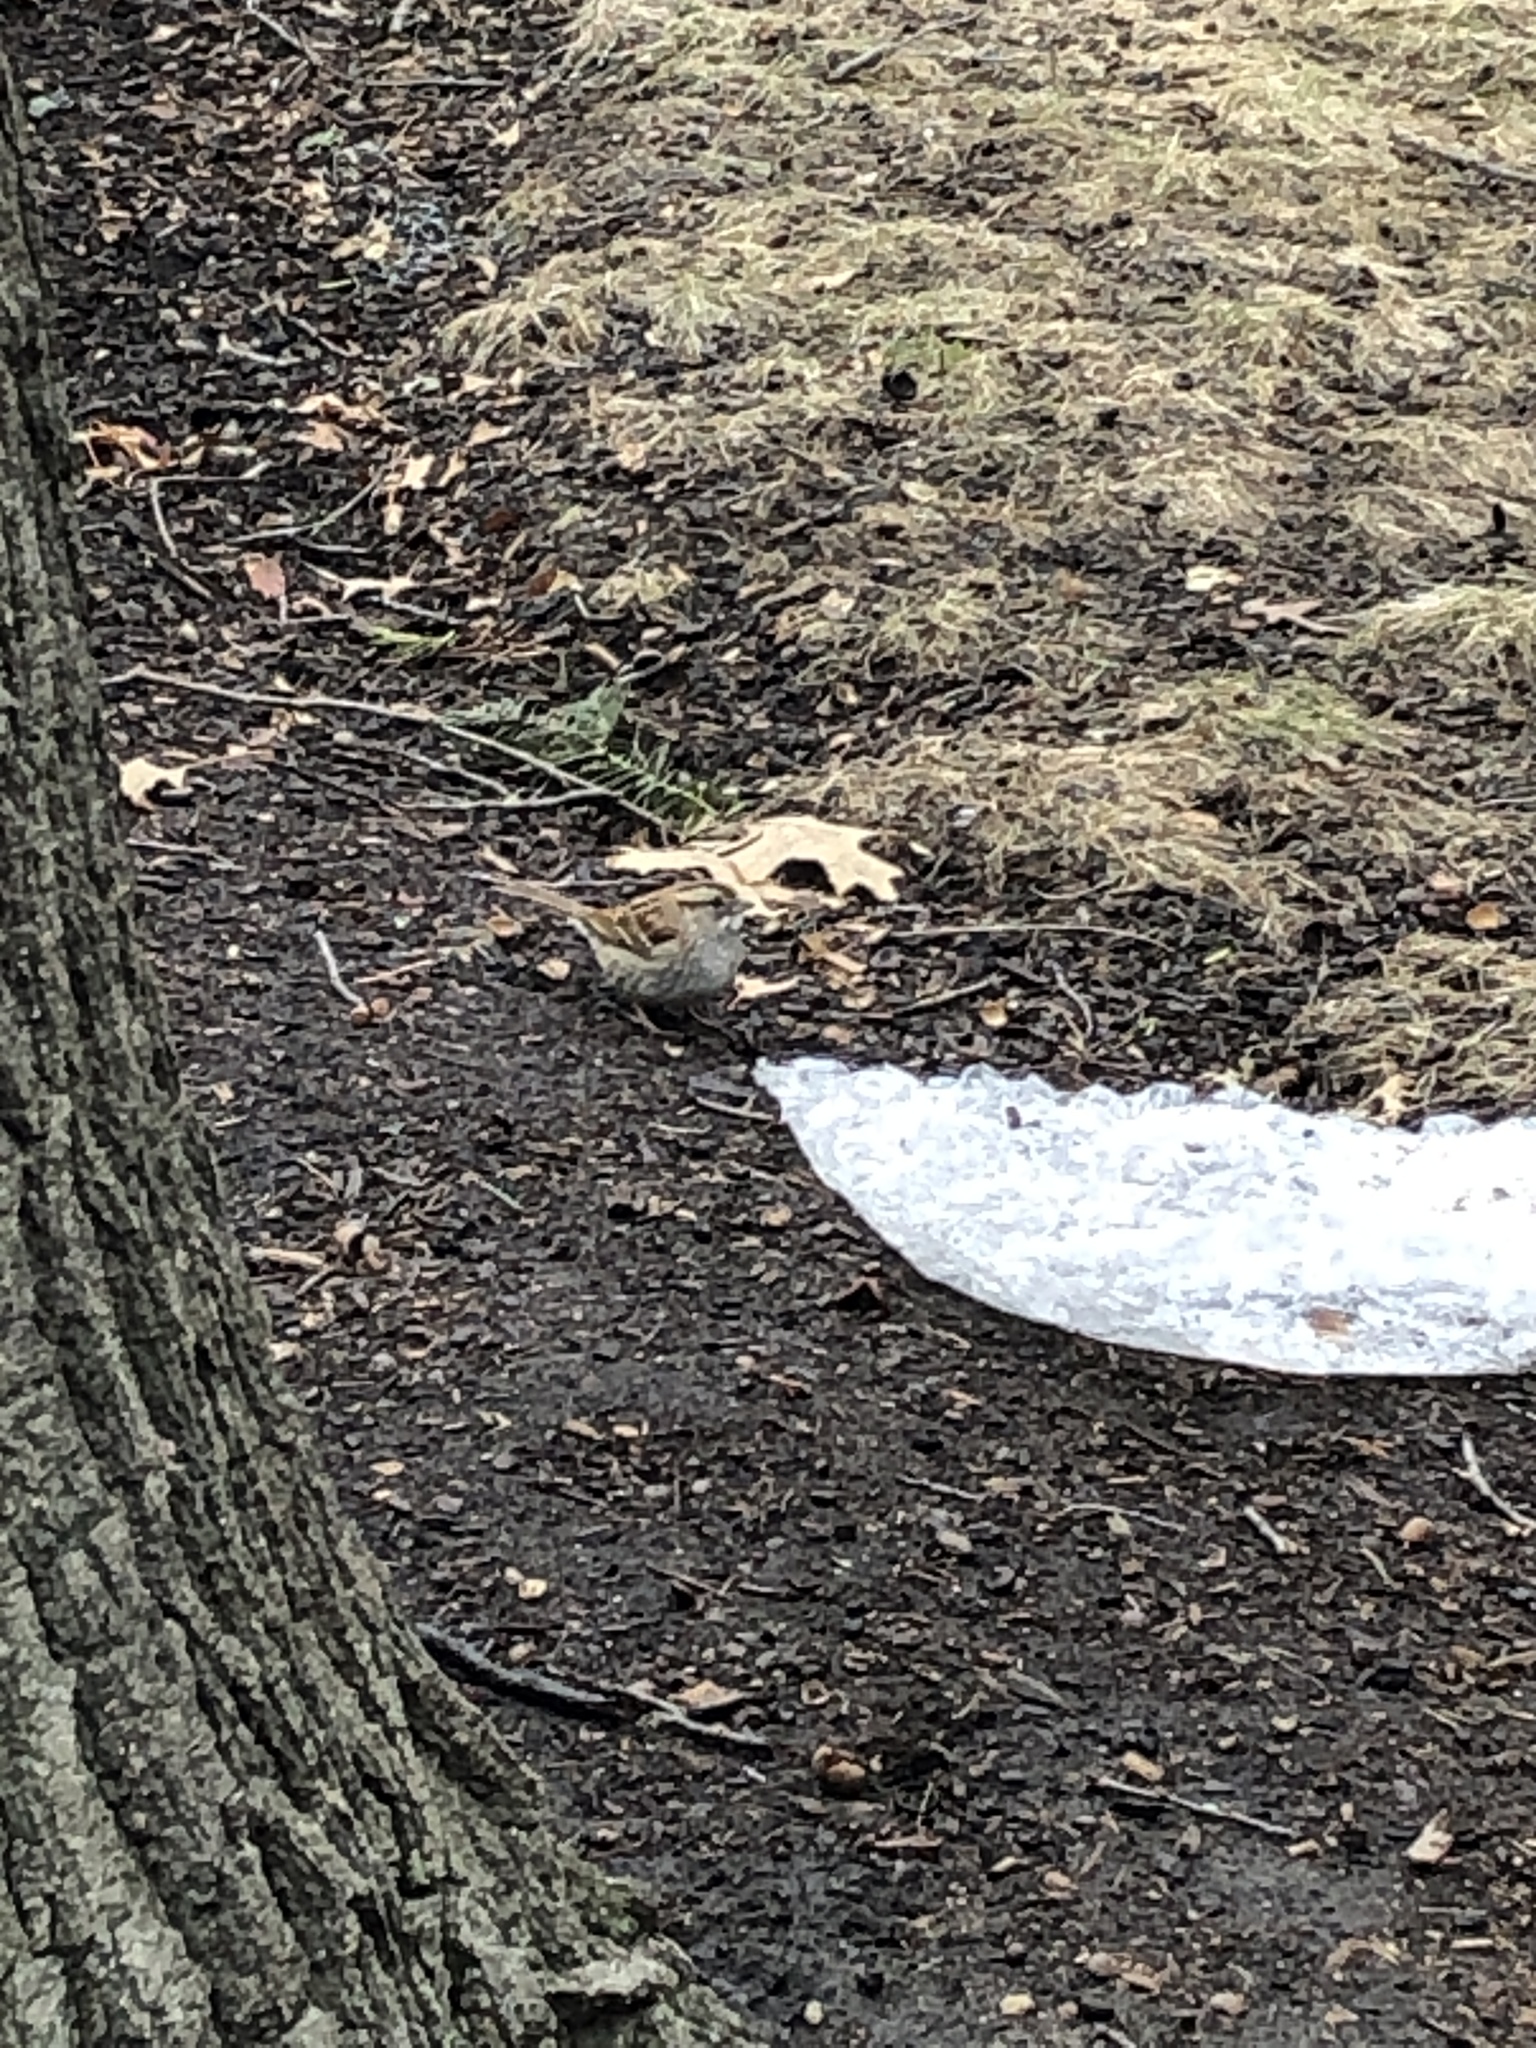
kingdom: Animalia
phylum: Chordata
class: Aves
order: Passeriformes
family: Passerellidae
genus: Zonotrichia
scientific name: Zonotrichia albicollis
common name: White-throated sparrow
